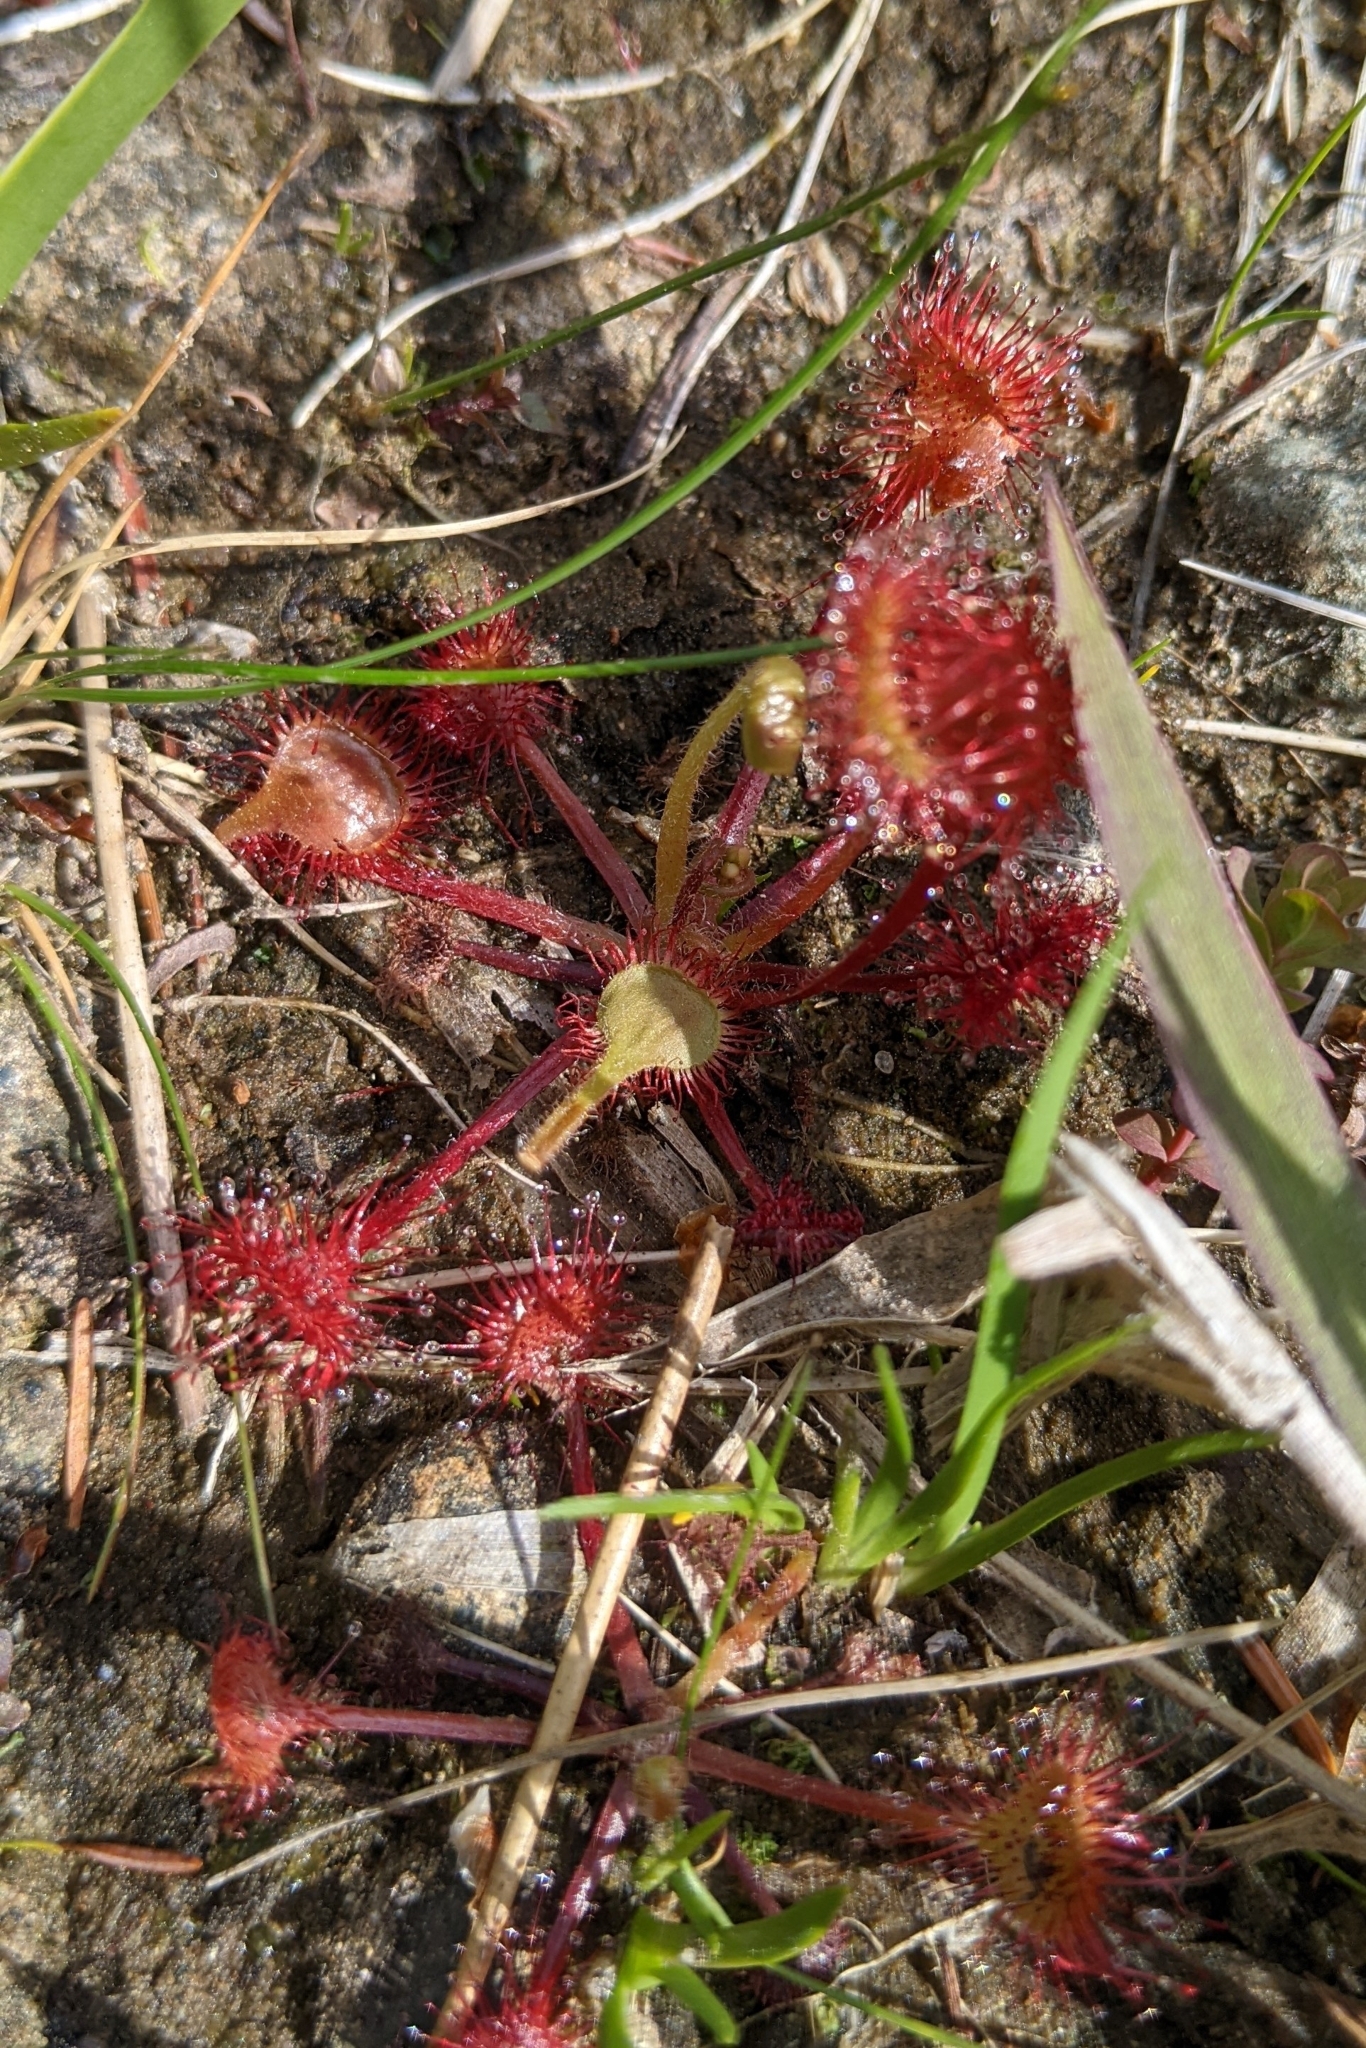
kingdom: Plantae
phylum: Tracheophyta
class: Magnoliopsida
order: Caryophyllales
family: Droseraceae
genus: Drosera
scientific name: Drosera rotundifolia
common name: Round-leaved sundew
